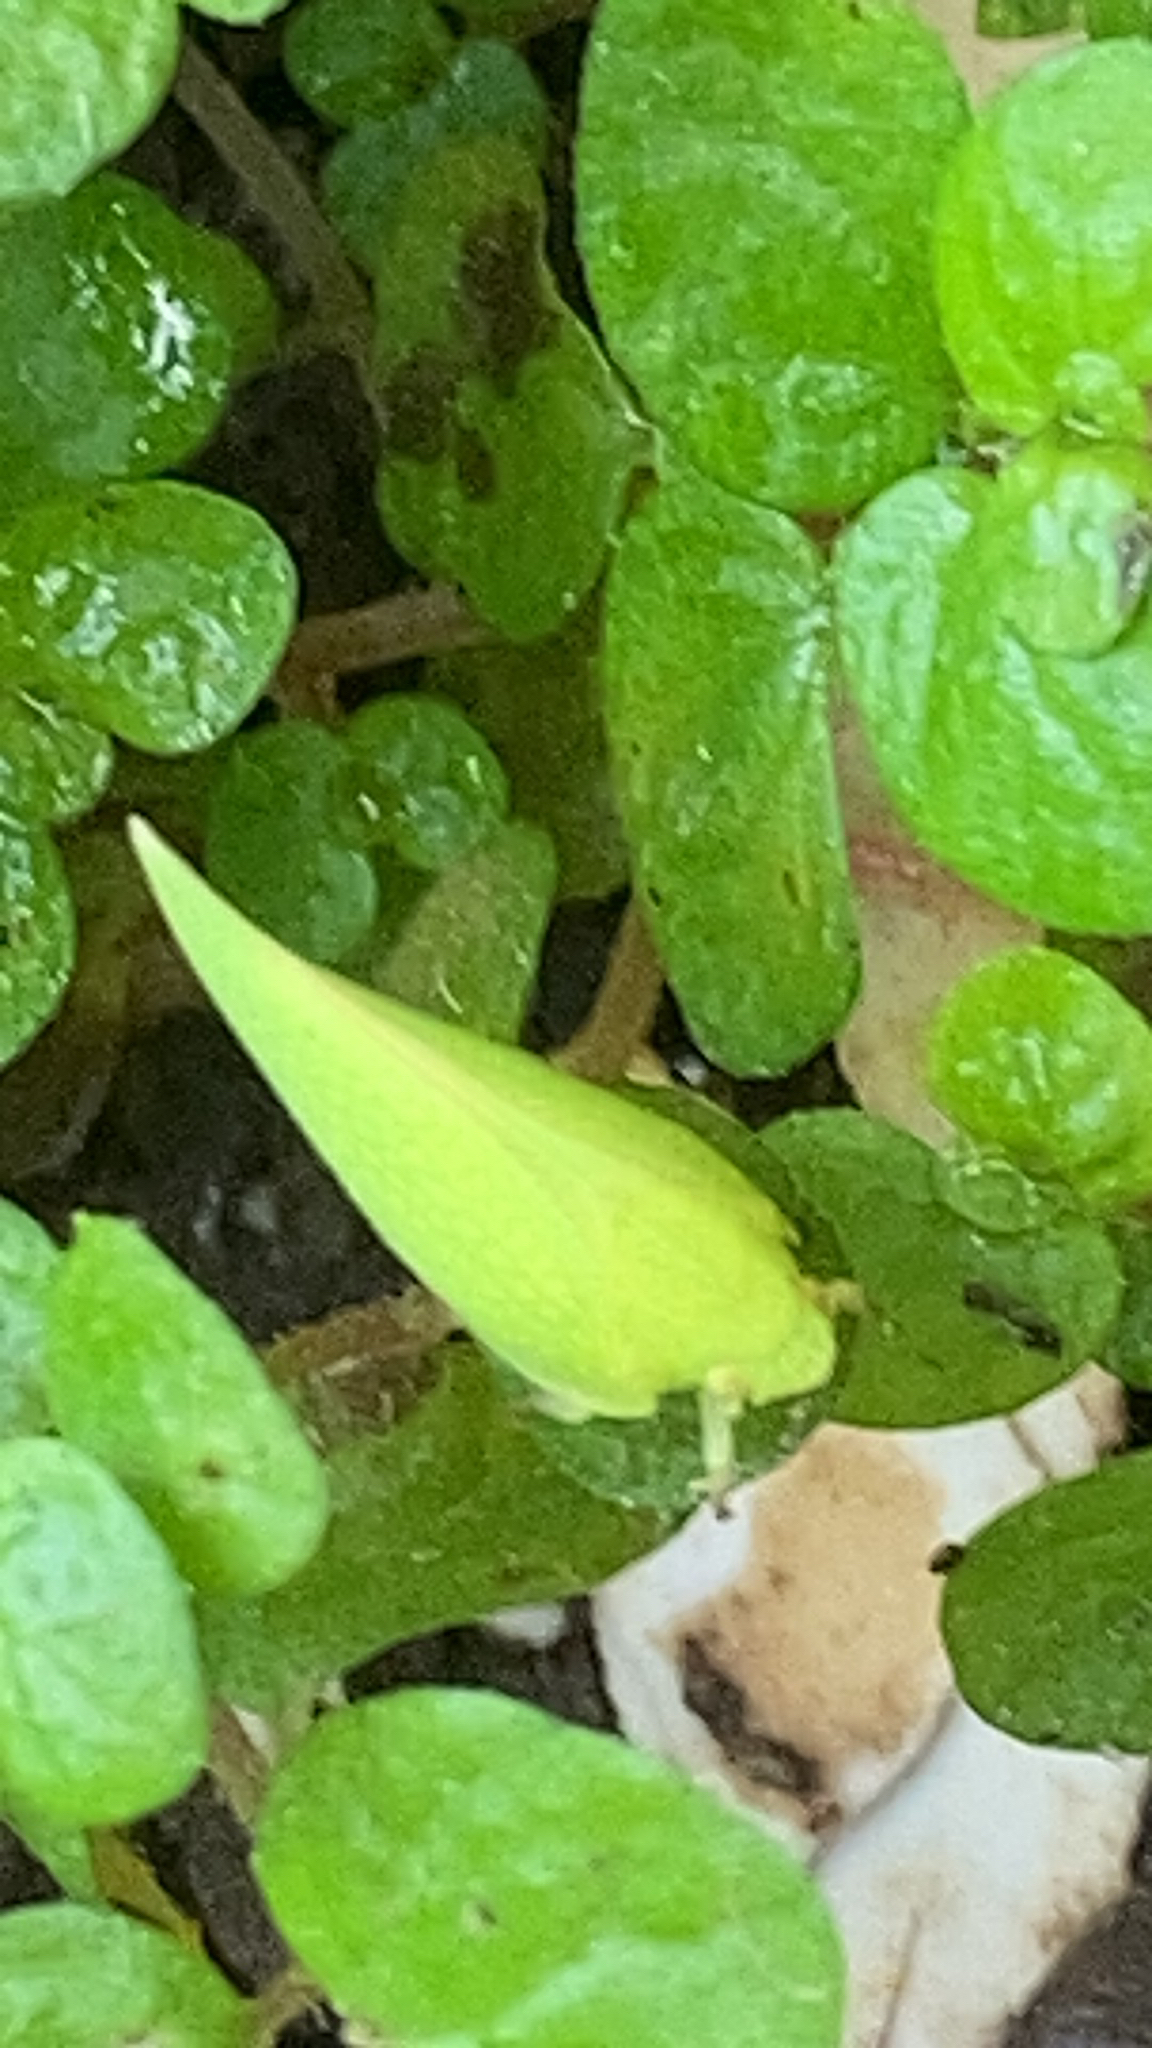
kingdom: Animalia
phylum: Arthropoda
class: Insecta
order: Hemiptera
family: Flatidae
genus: Siphanta
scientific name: Siphanta acuta
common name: Torpedo bug
